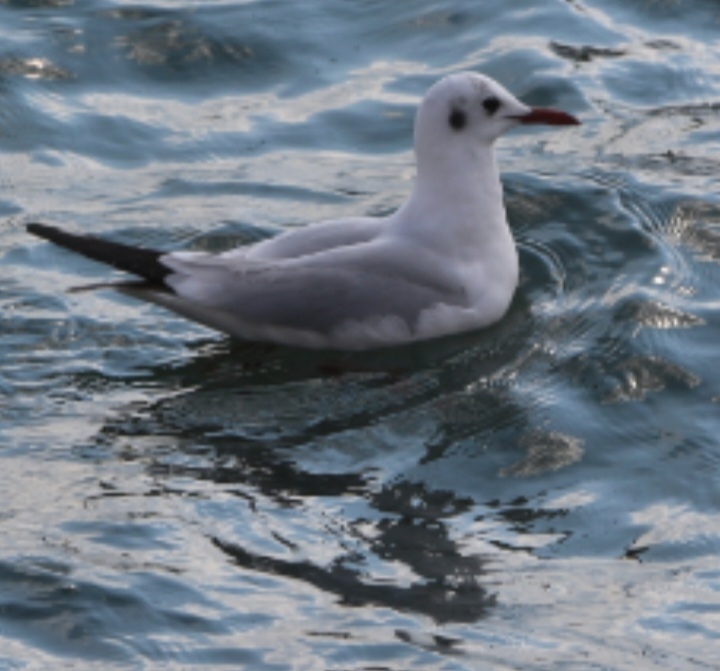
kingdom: Animalia
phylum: Chordata
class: Aves
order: Charadriiformes
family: Laridae
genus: Chroicocephalus
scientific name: Chroicocephalus ridibundus
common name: Black-headed gull
